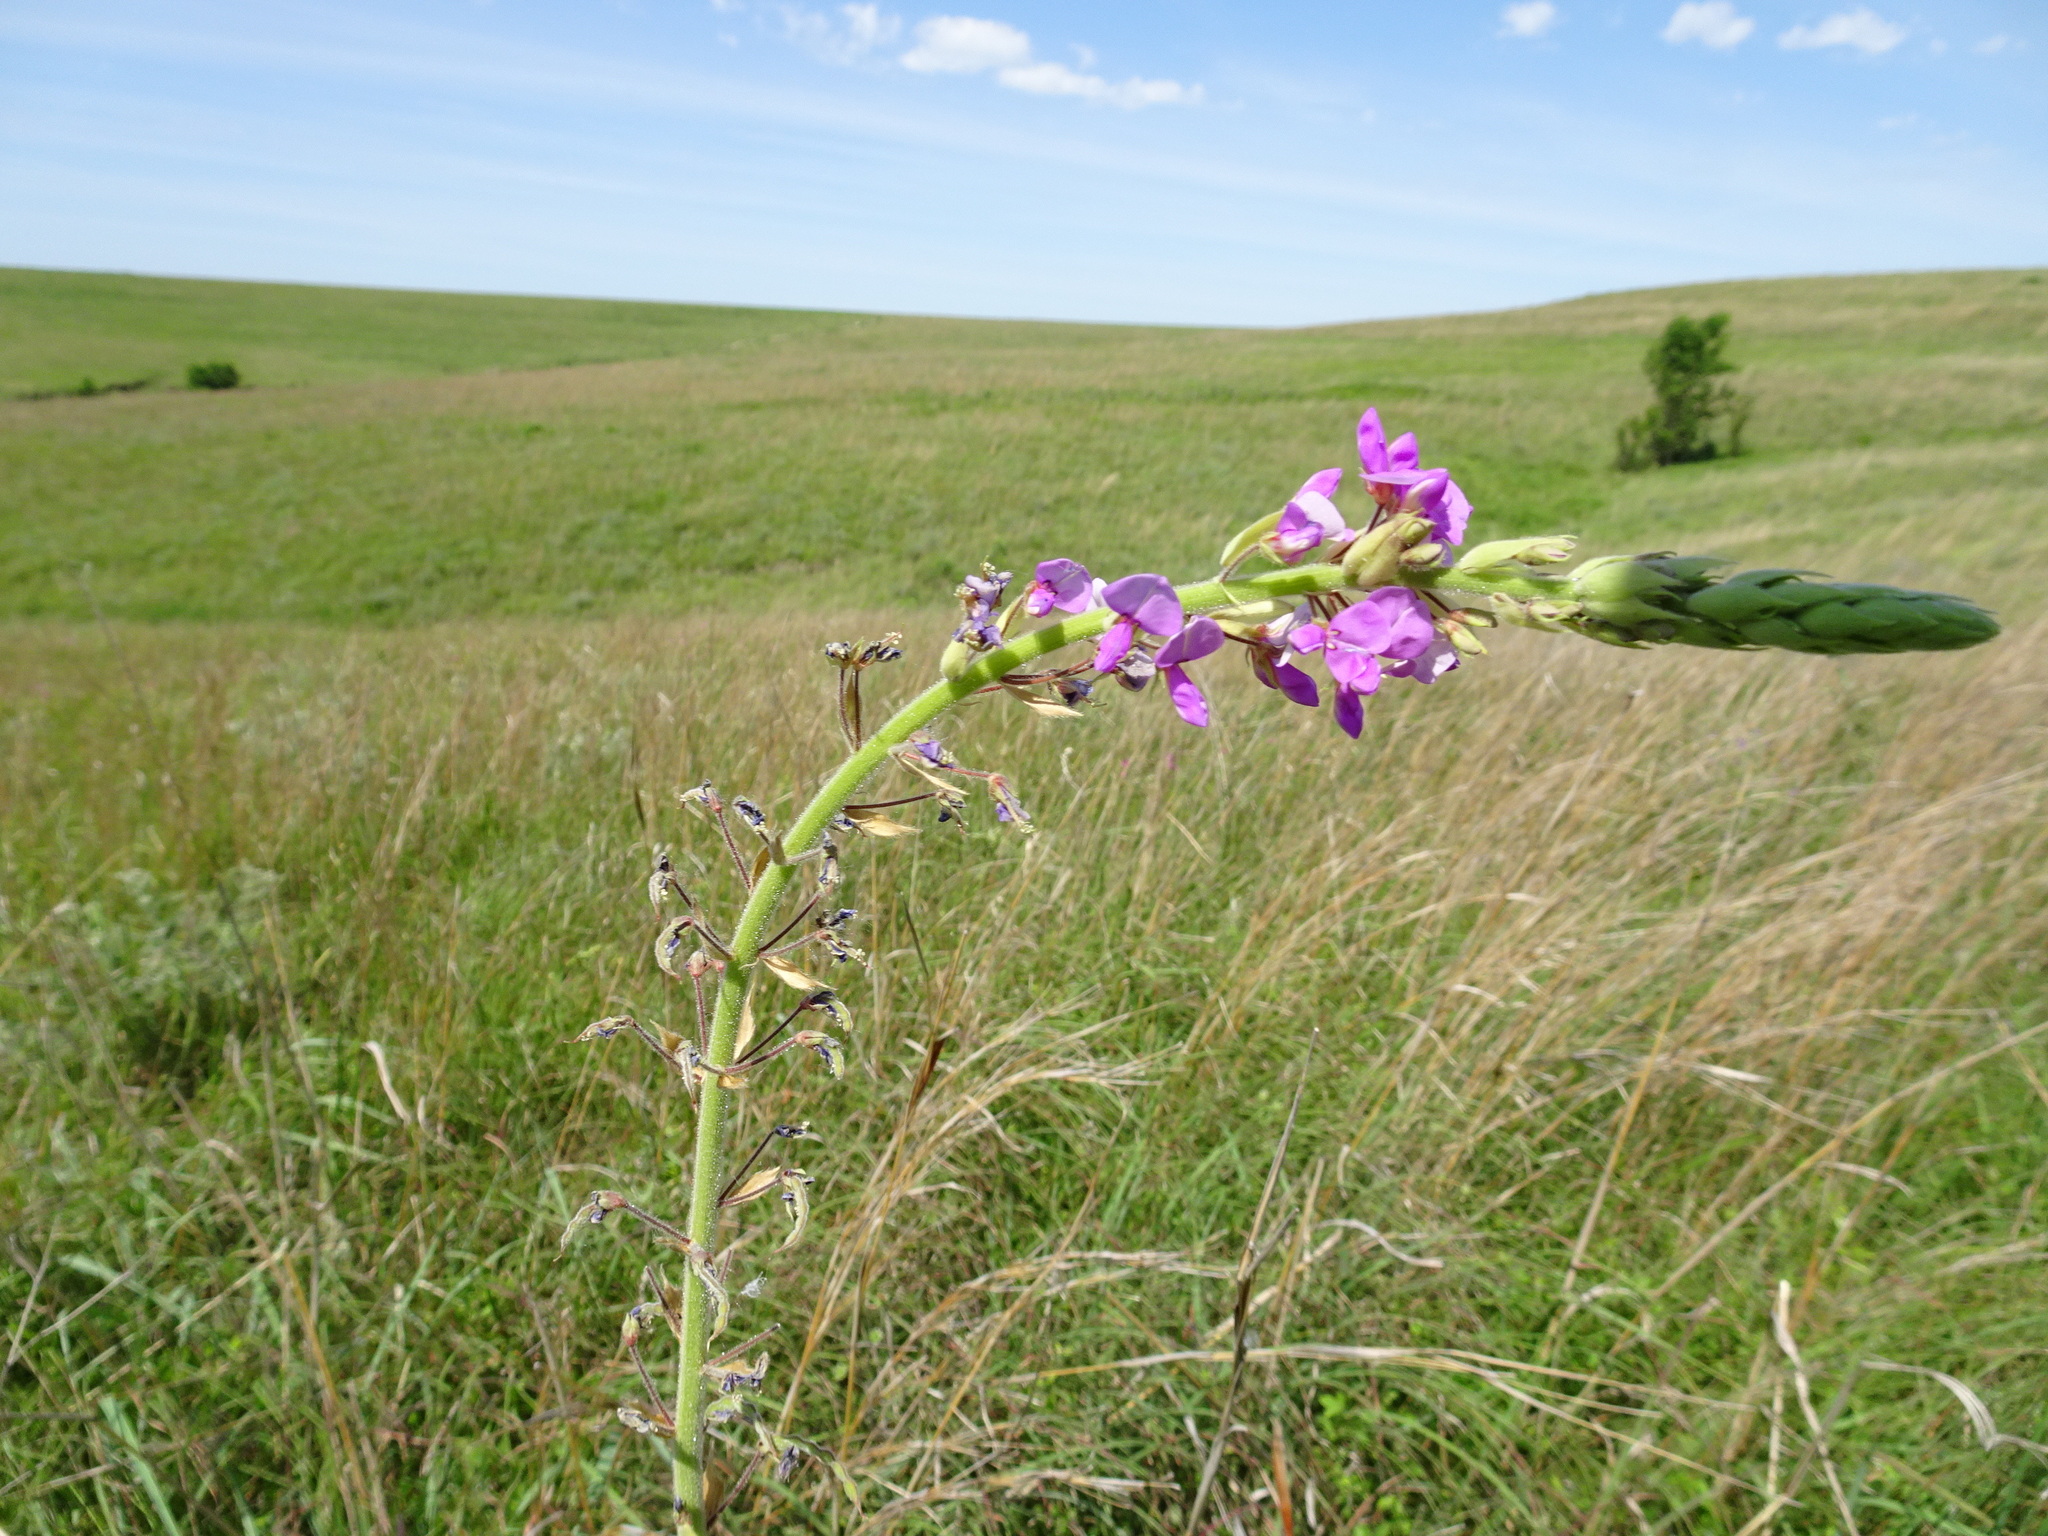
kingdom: Plantae
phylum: Tracheophyta
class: Magnoliopsida
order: Fabales
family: Fabaceae
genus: Desmodium
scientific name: Desmodium illinoense
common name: Illinois tick-clover
